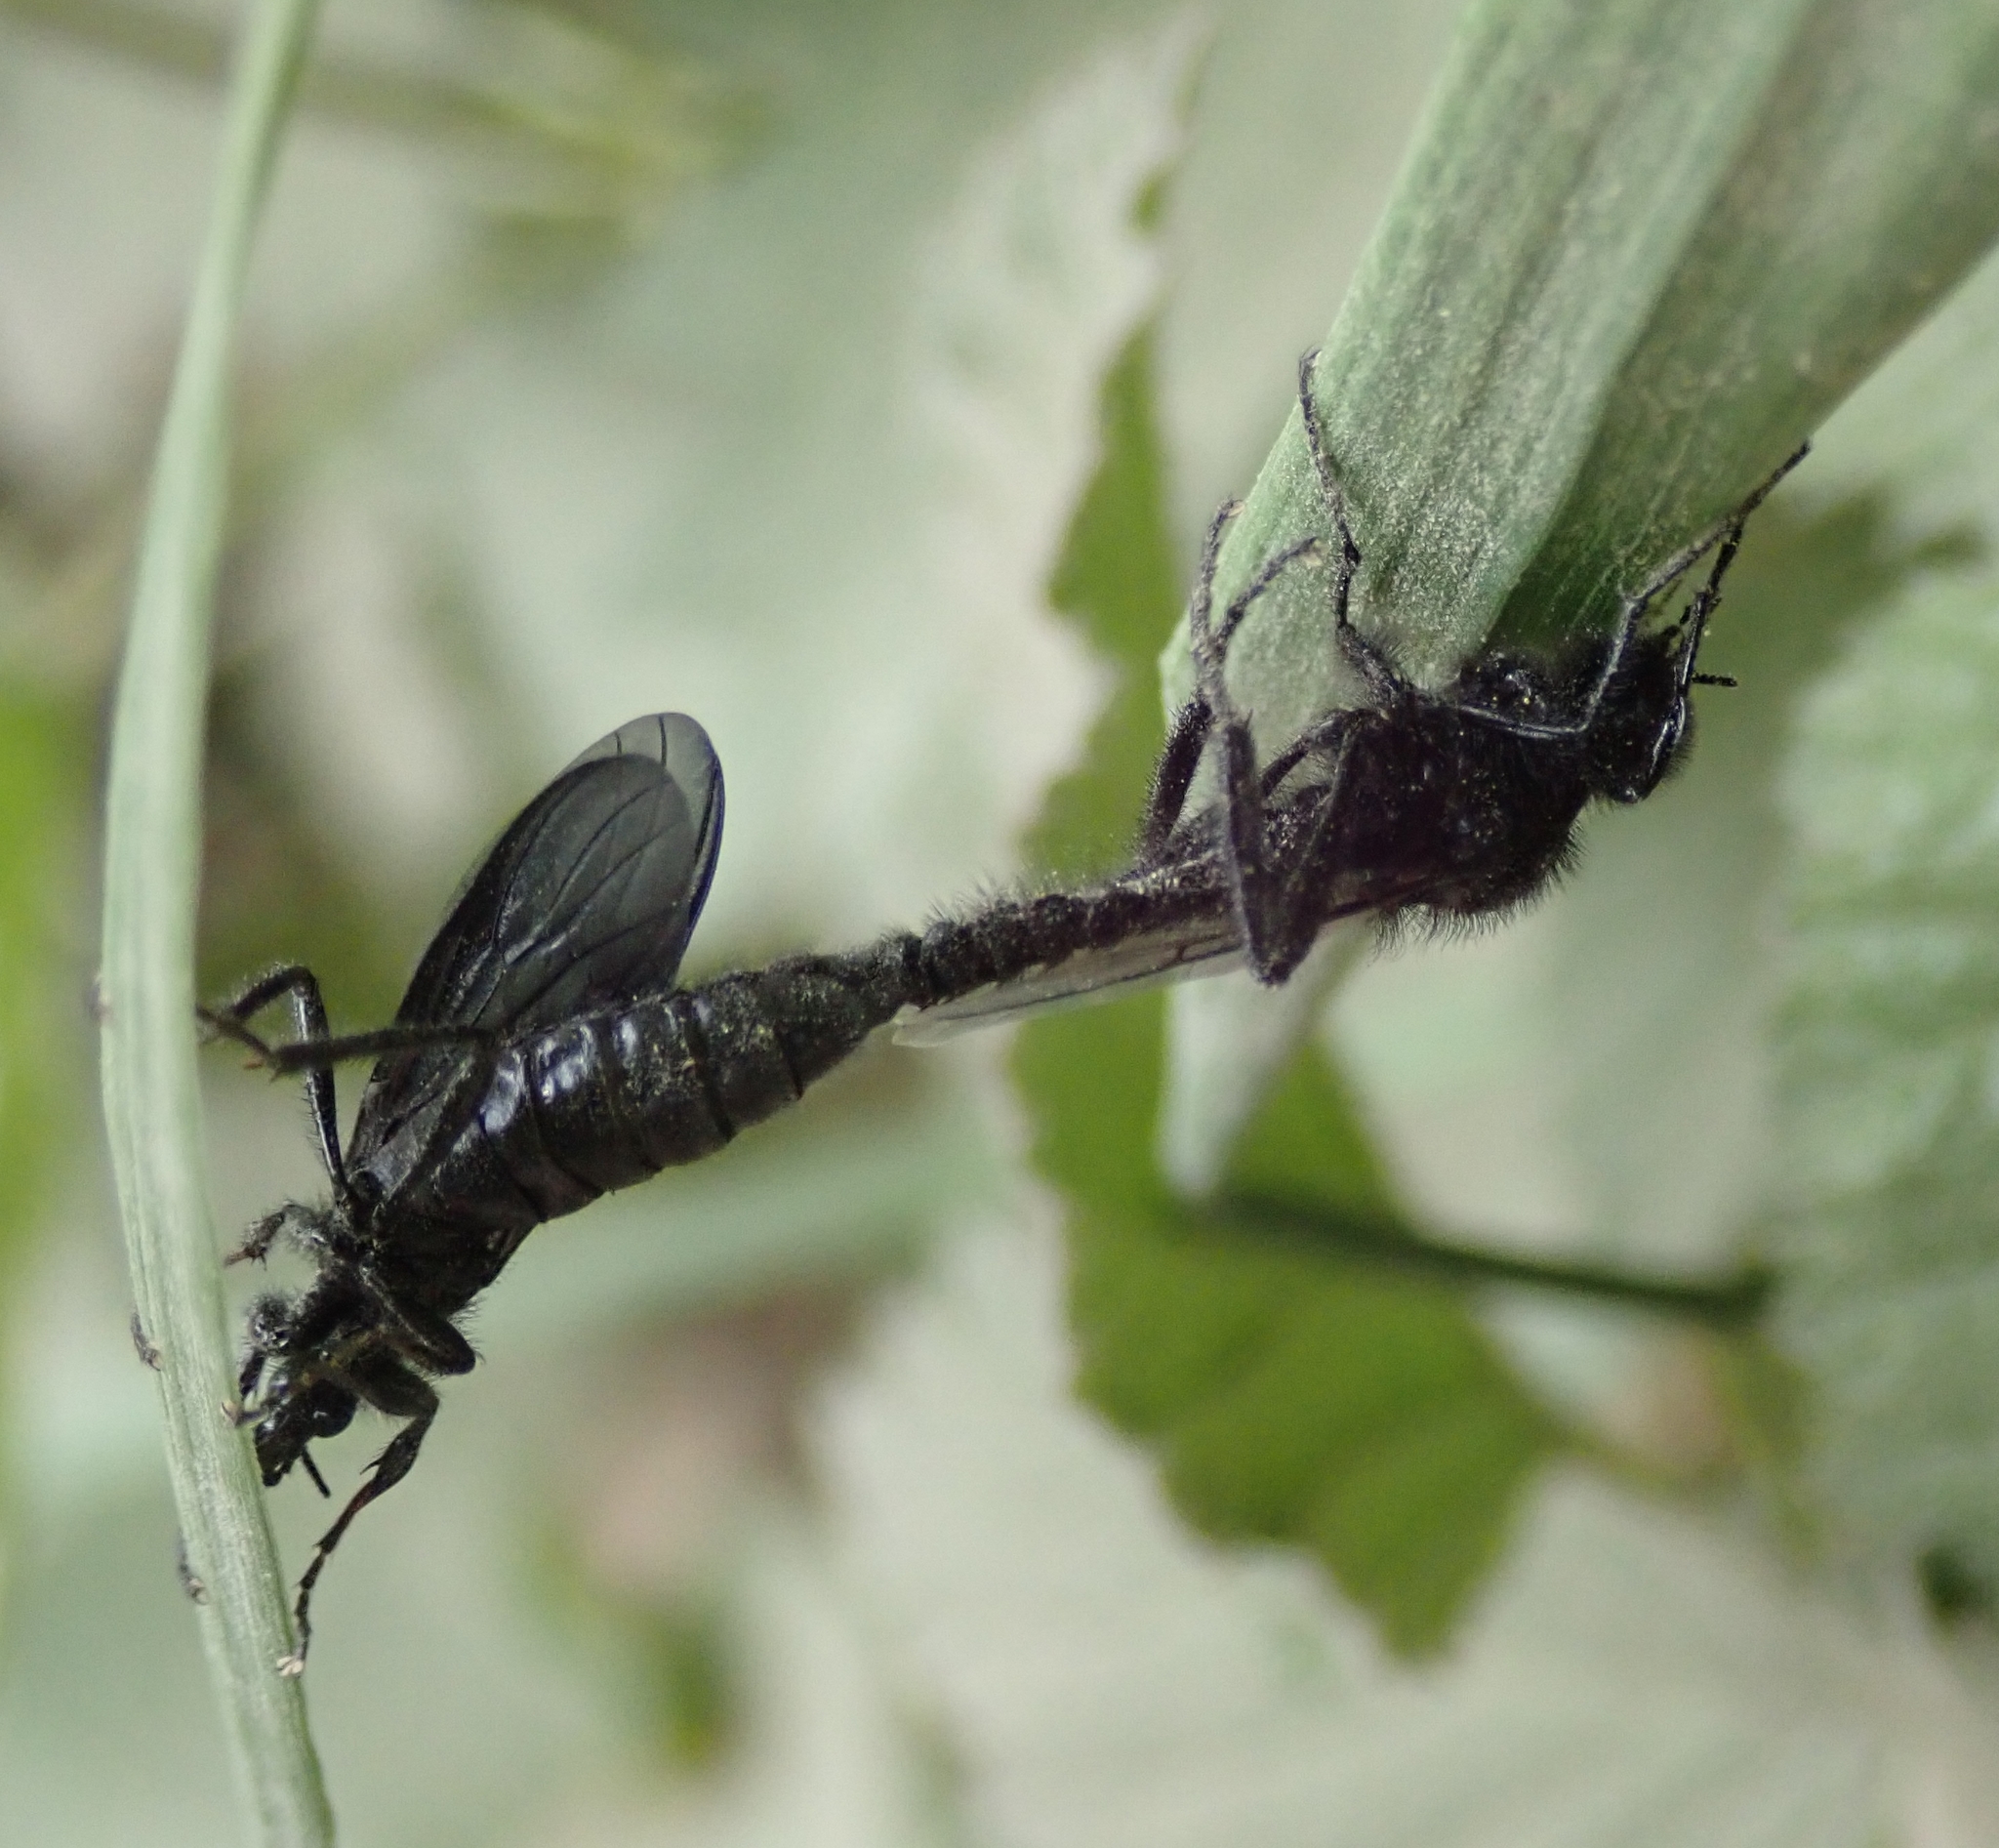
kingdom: Animalia
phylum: Arthropoda
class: Insecta
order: Diptera
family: Bibionidae
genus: Bibio
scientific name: Bibio marci
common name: St marks fly
